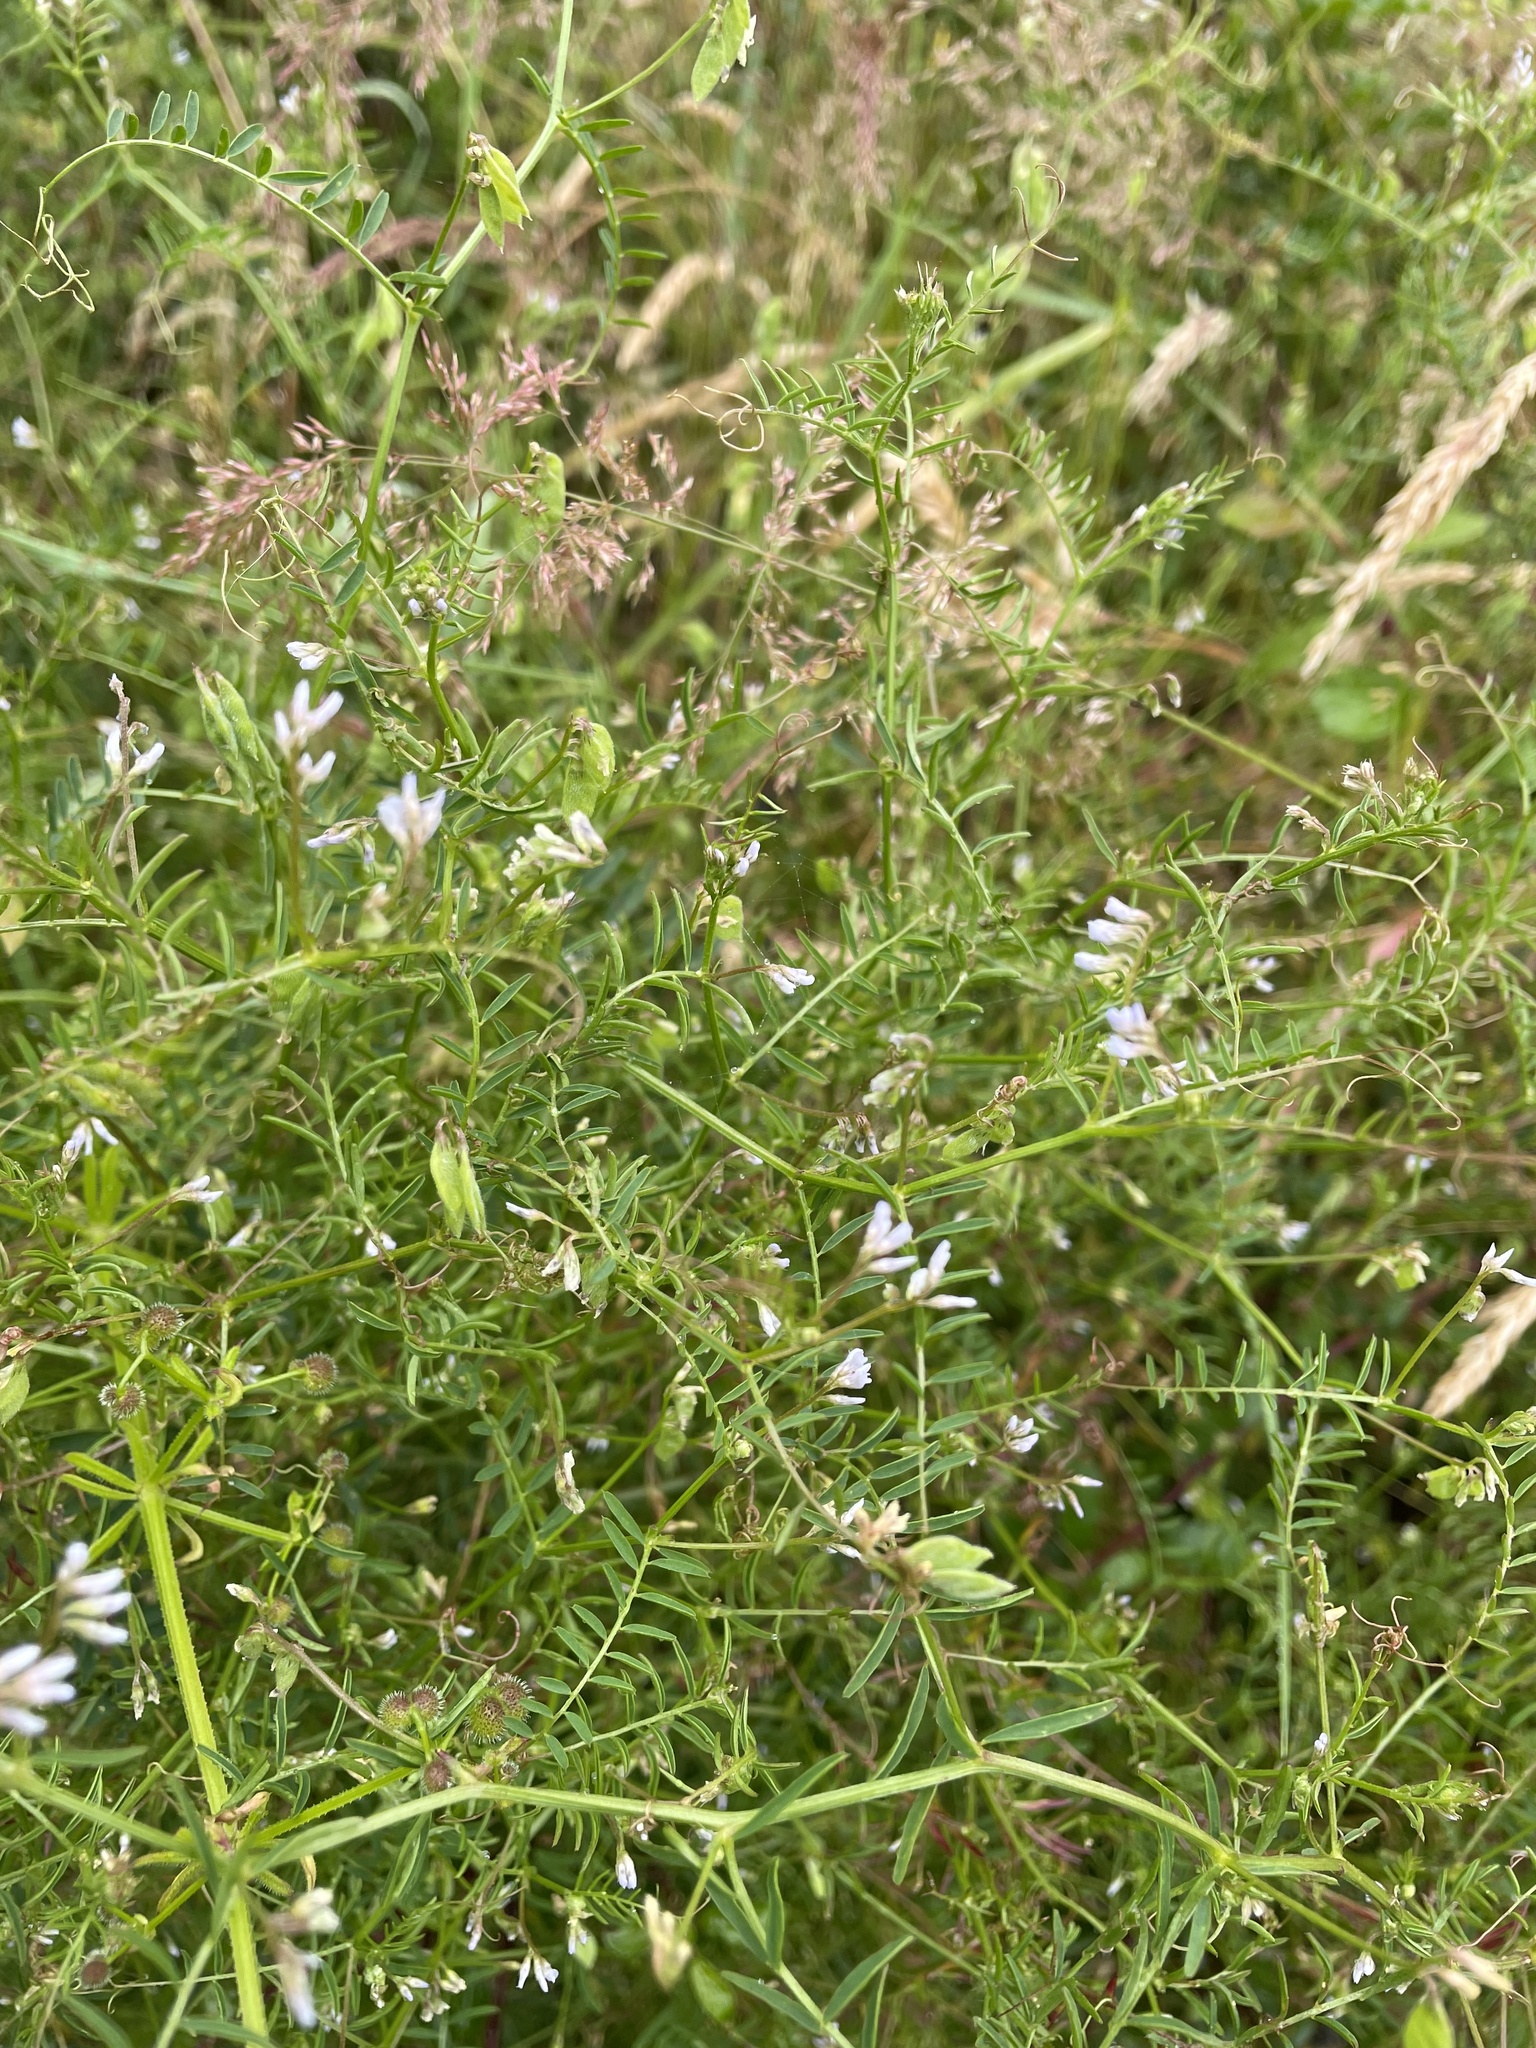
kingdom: Plantae
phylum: Tracheophyta
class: Magnoliopsida
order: Fabales
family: Fabaceae
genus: Vicia
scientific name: Vicia hirsuta
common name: Tiny vetch
